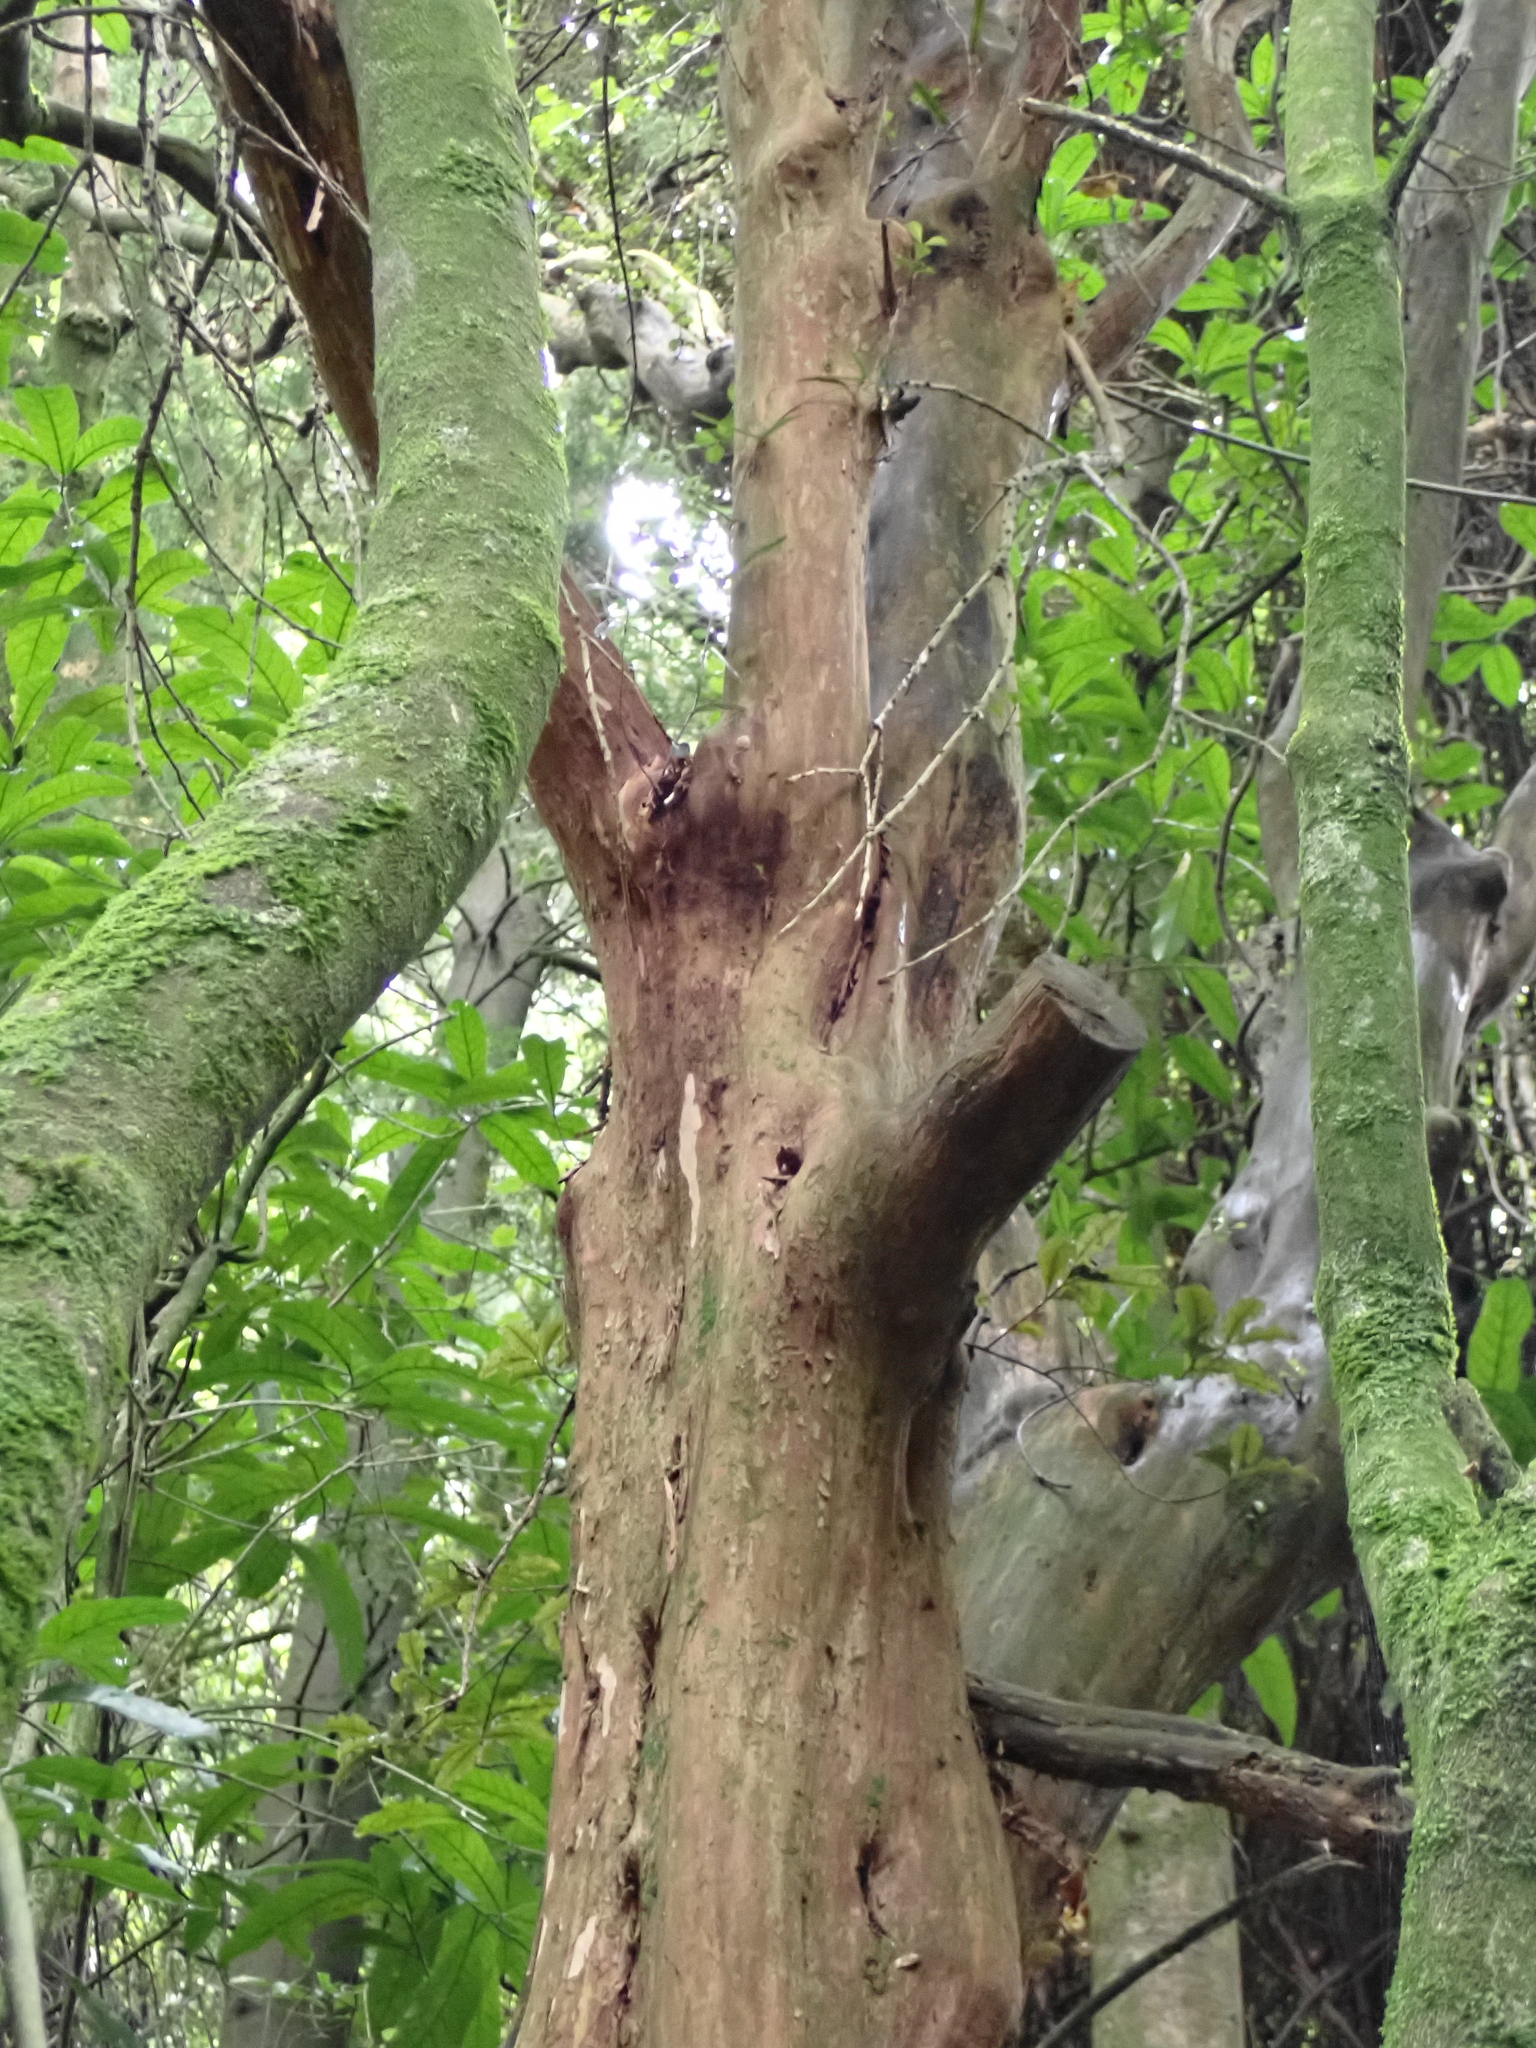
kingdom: Plantae
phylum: Tracheophyta
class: Magnoliopsida
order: Myrtales
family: Onagraceae
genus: Fuchsia
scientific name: Fuchsia excorticata
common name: Tree fuchsia
